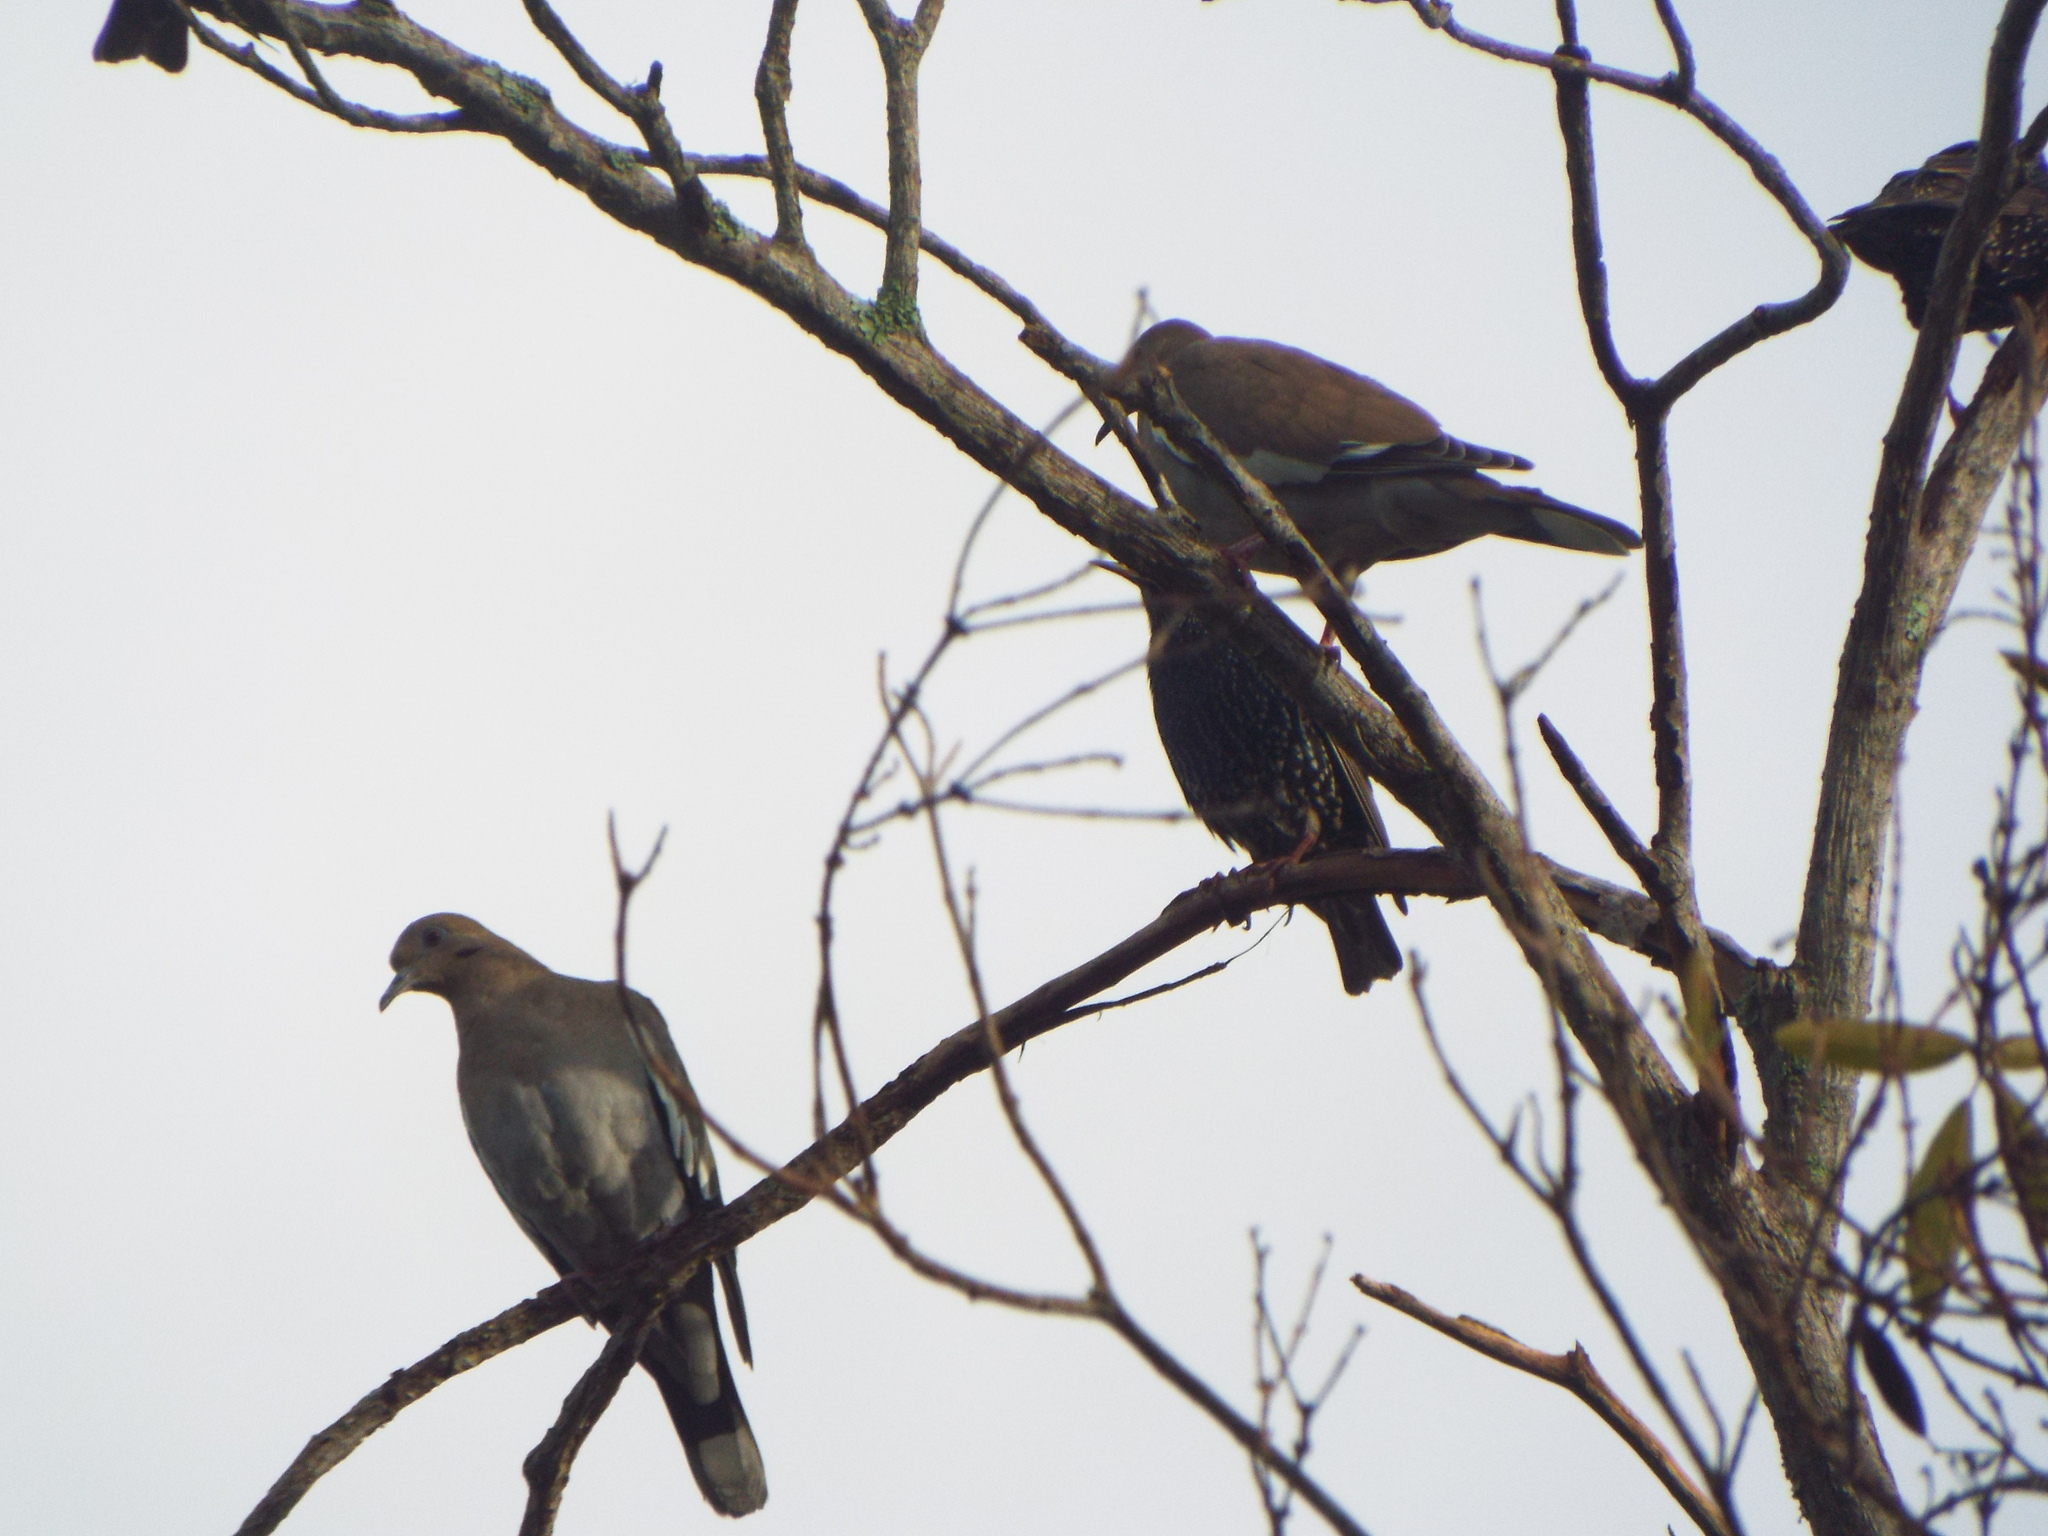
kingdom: Animalia
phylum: Chordata
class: Aves
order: Columbiformes
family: Columbidae
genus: Zenaida
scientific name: Zenaida asiatica
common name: White-winged dove
